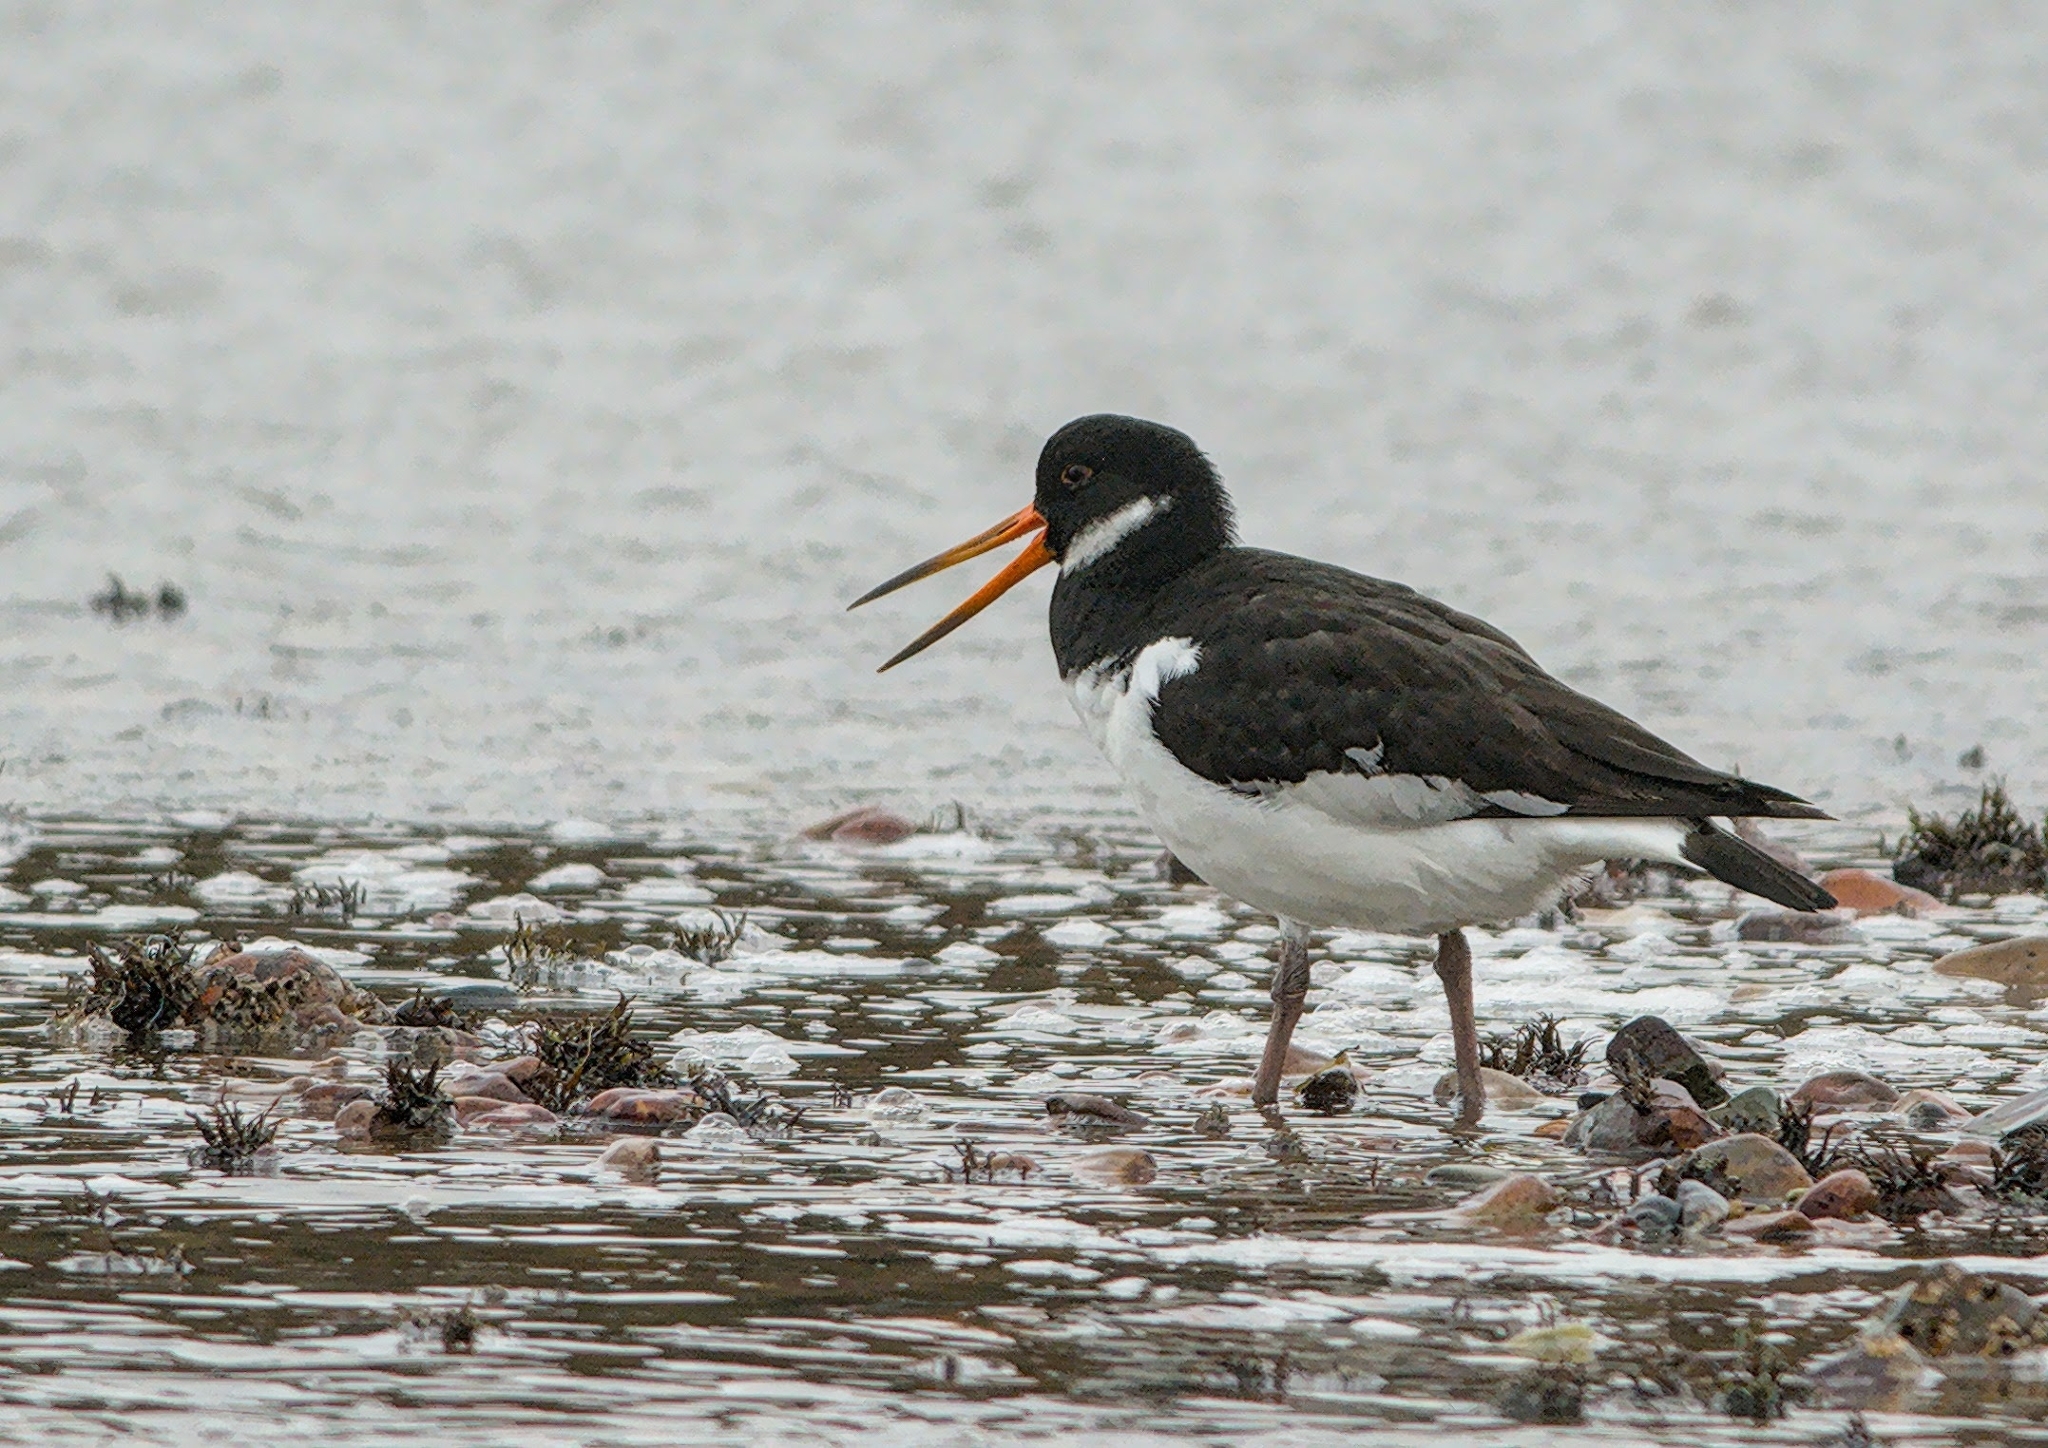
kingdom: Animalia
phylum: Chordata
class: Aves
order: Charadriiformes
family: Haematopodidae
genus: Haematopus
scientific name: Haematopus ostralegus
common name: Eurasian oystercatcher
